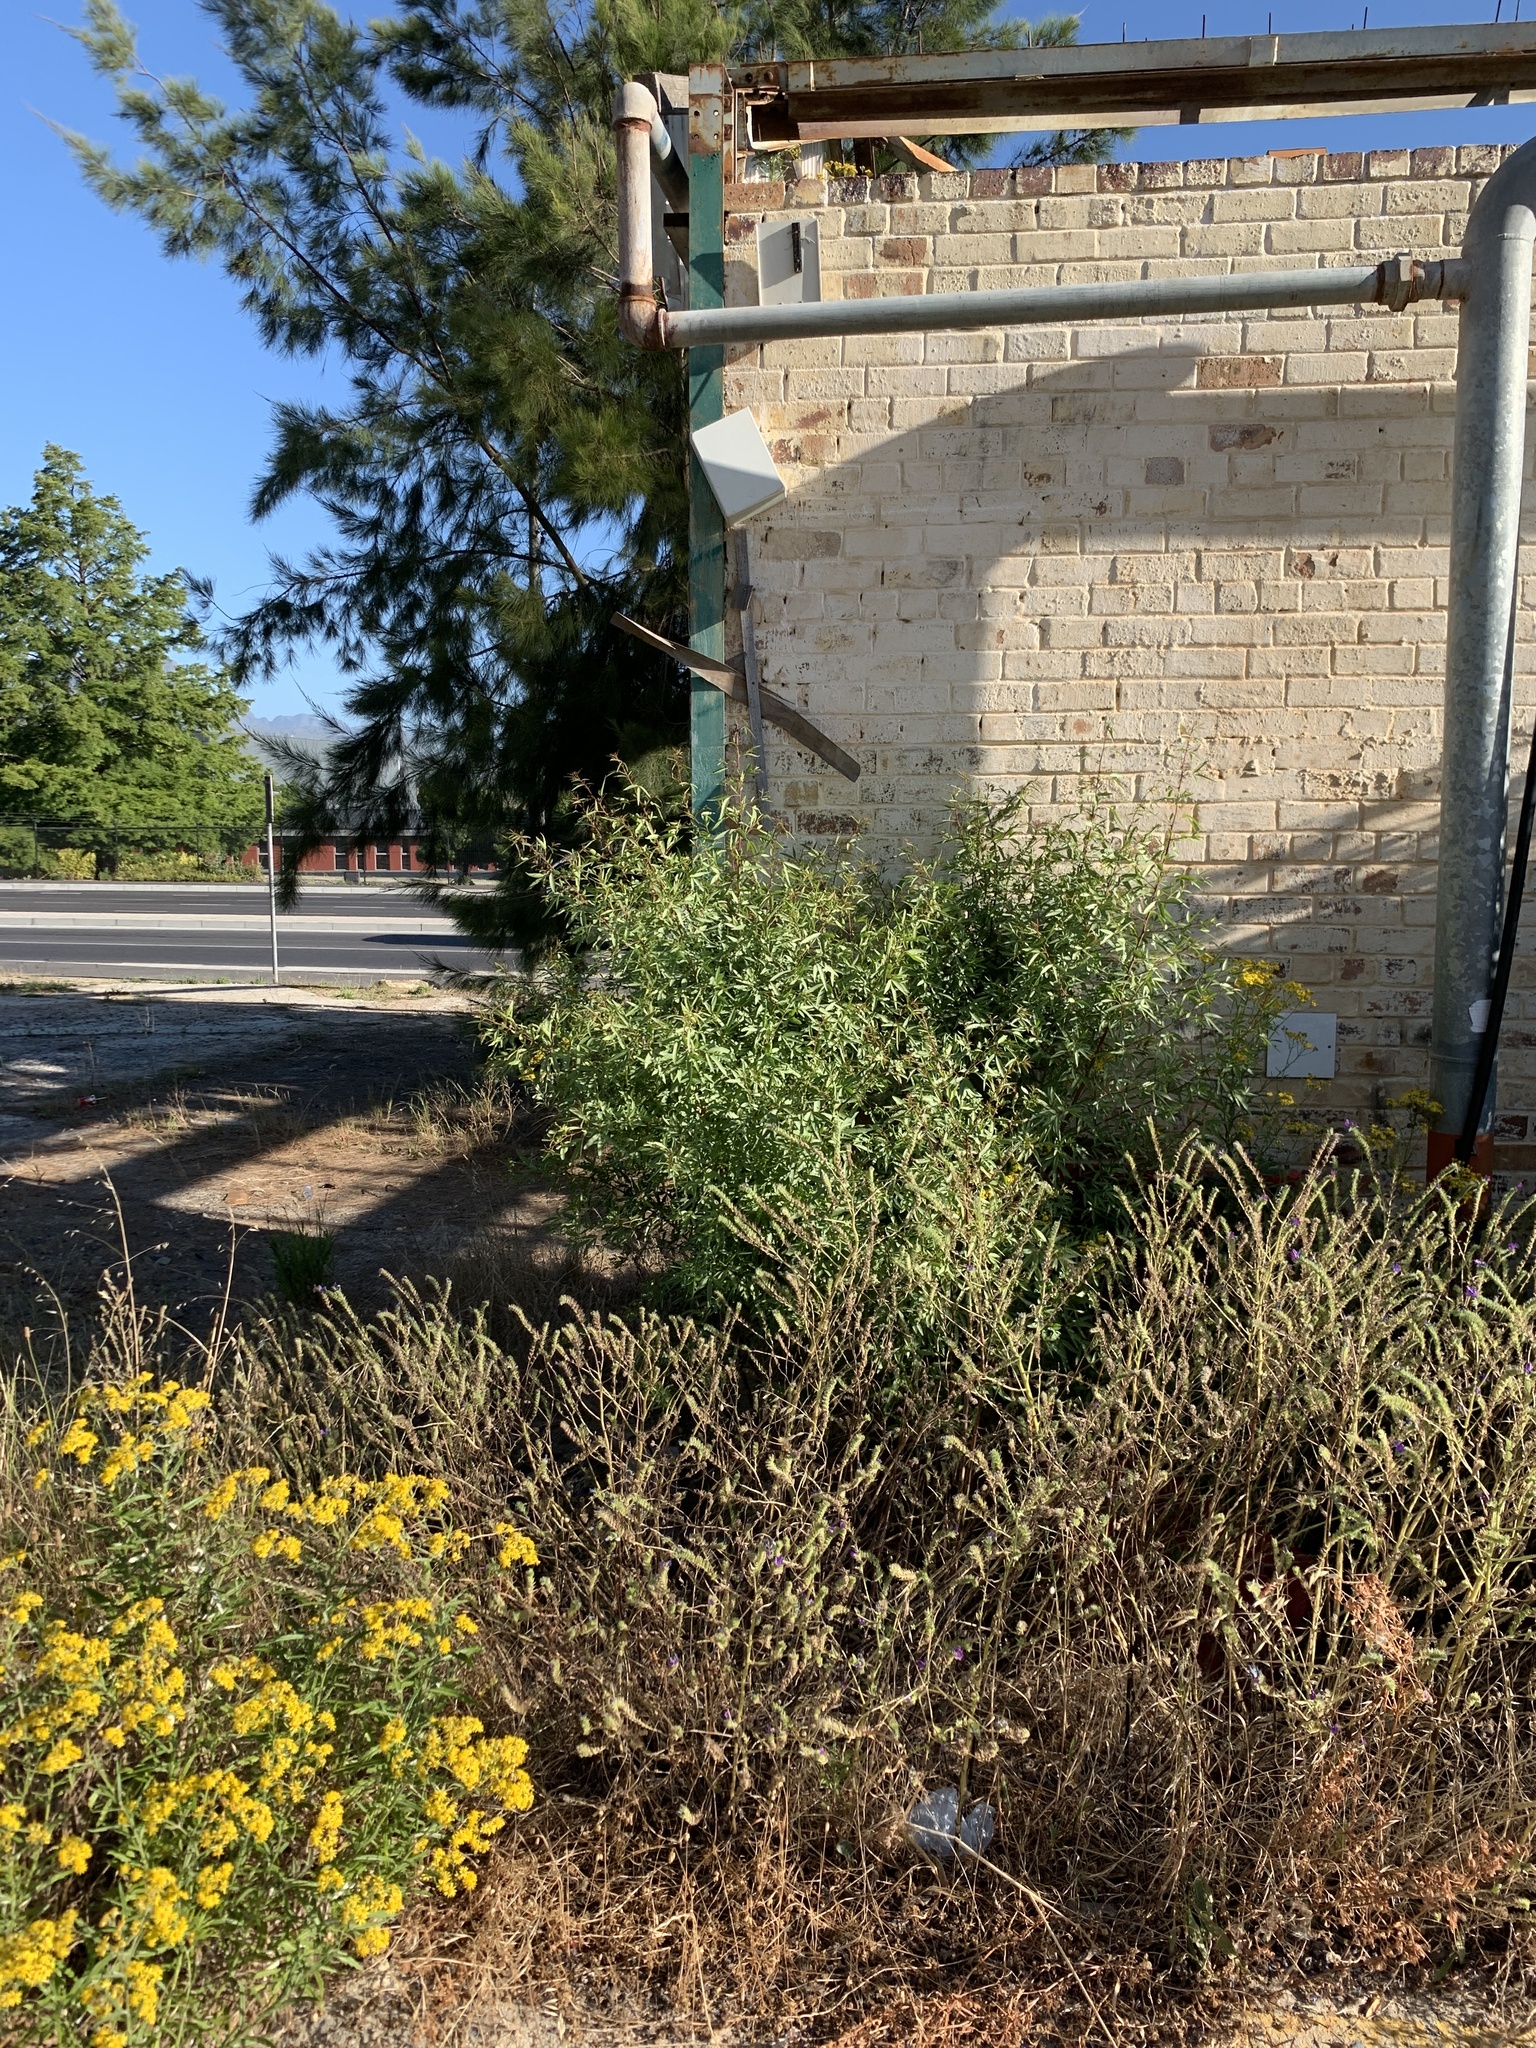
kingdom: Plantae
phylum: Tracheophyta
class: Magnoliopsida
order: Sapindales
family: Anacardiaceae
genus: Searsia
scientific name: Searsia pendulina
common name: White karee
